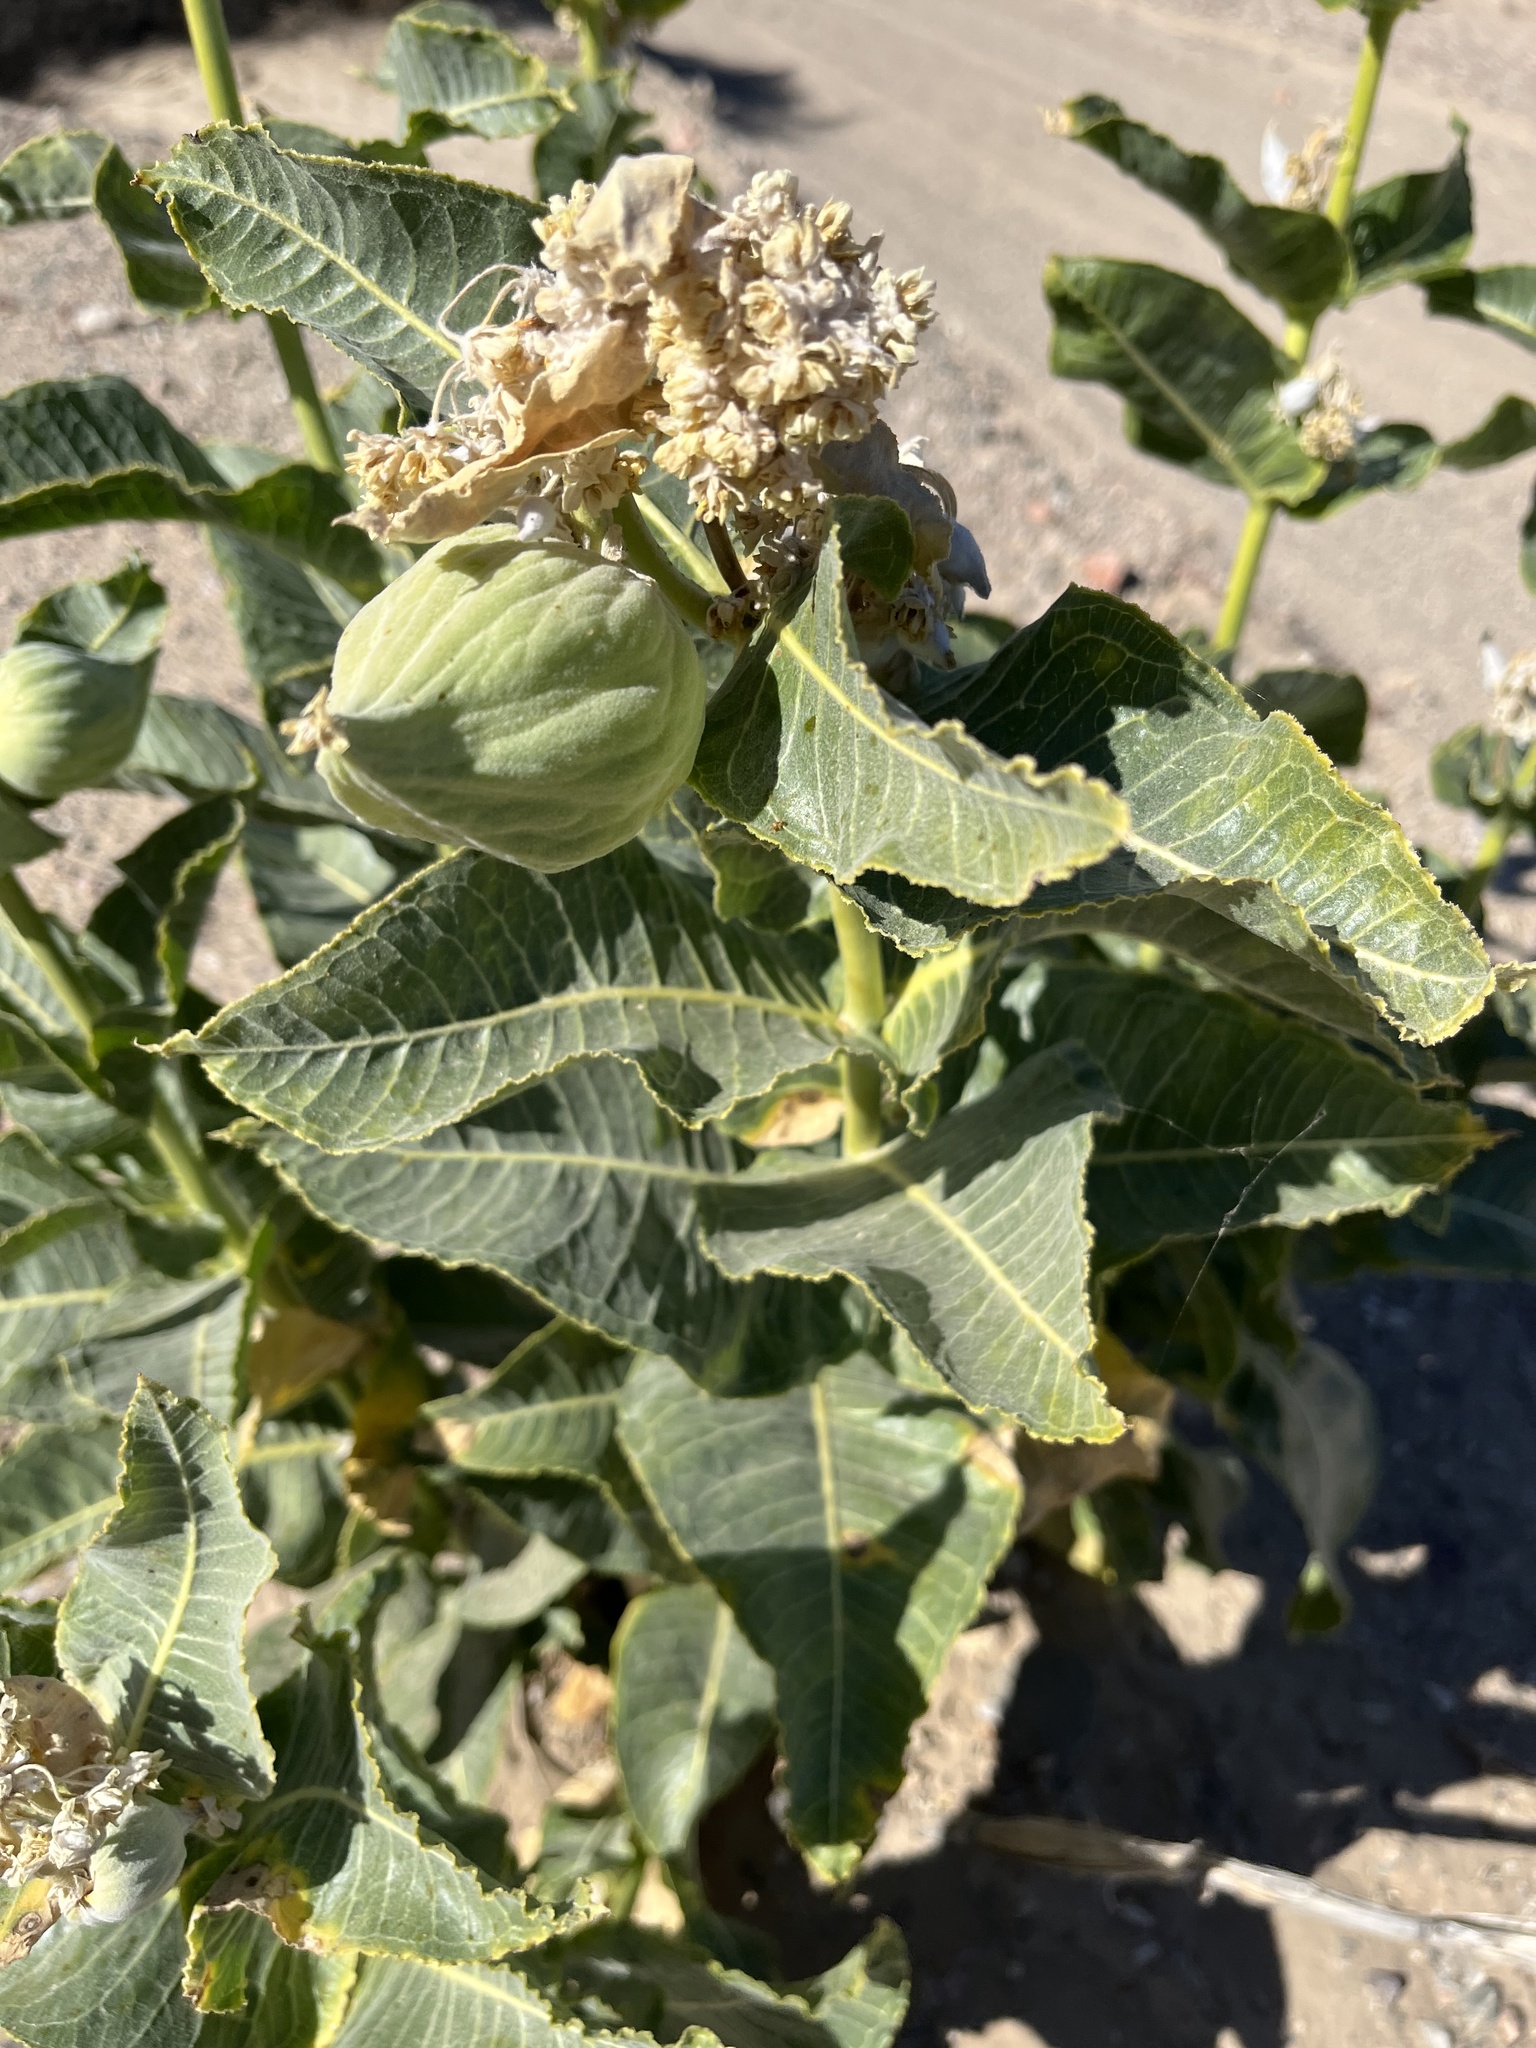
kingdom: Plantae
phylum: Tracheophyta
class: Magnoliopsida
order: Gentianales
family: Apocynaceae
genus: Asclepias
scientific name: Asclepias erosa
